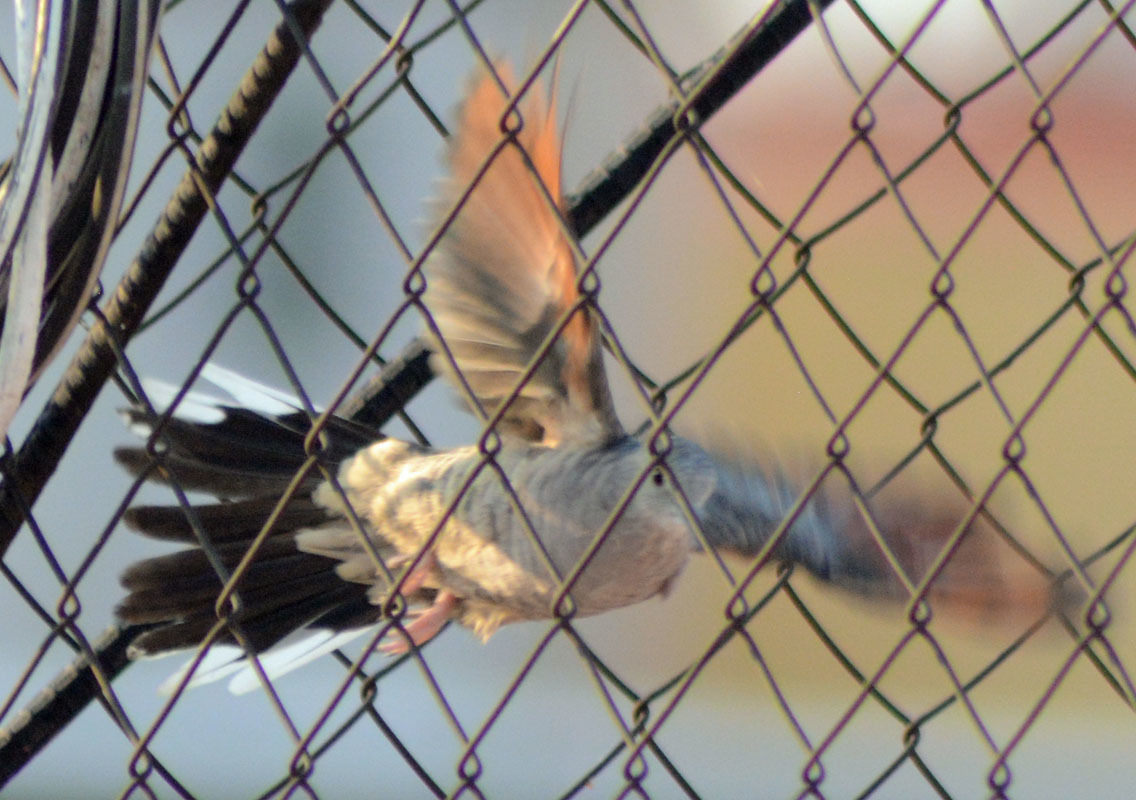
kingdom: Animalia
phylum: Chordata
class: Aves
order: Columbiformes
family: Columbidae
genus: Columbina
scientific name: Columbina inca
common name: Inca dove
